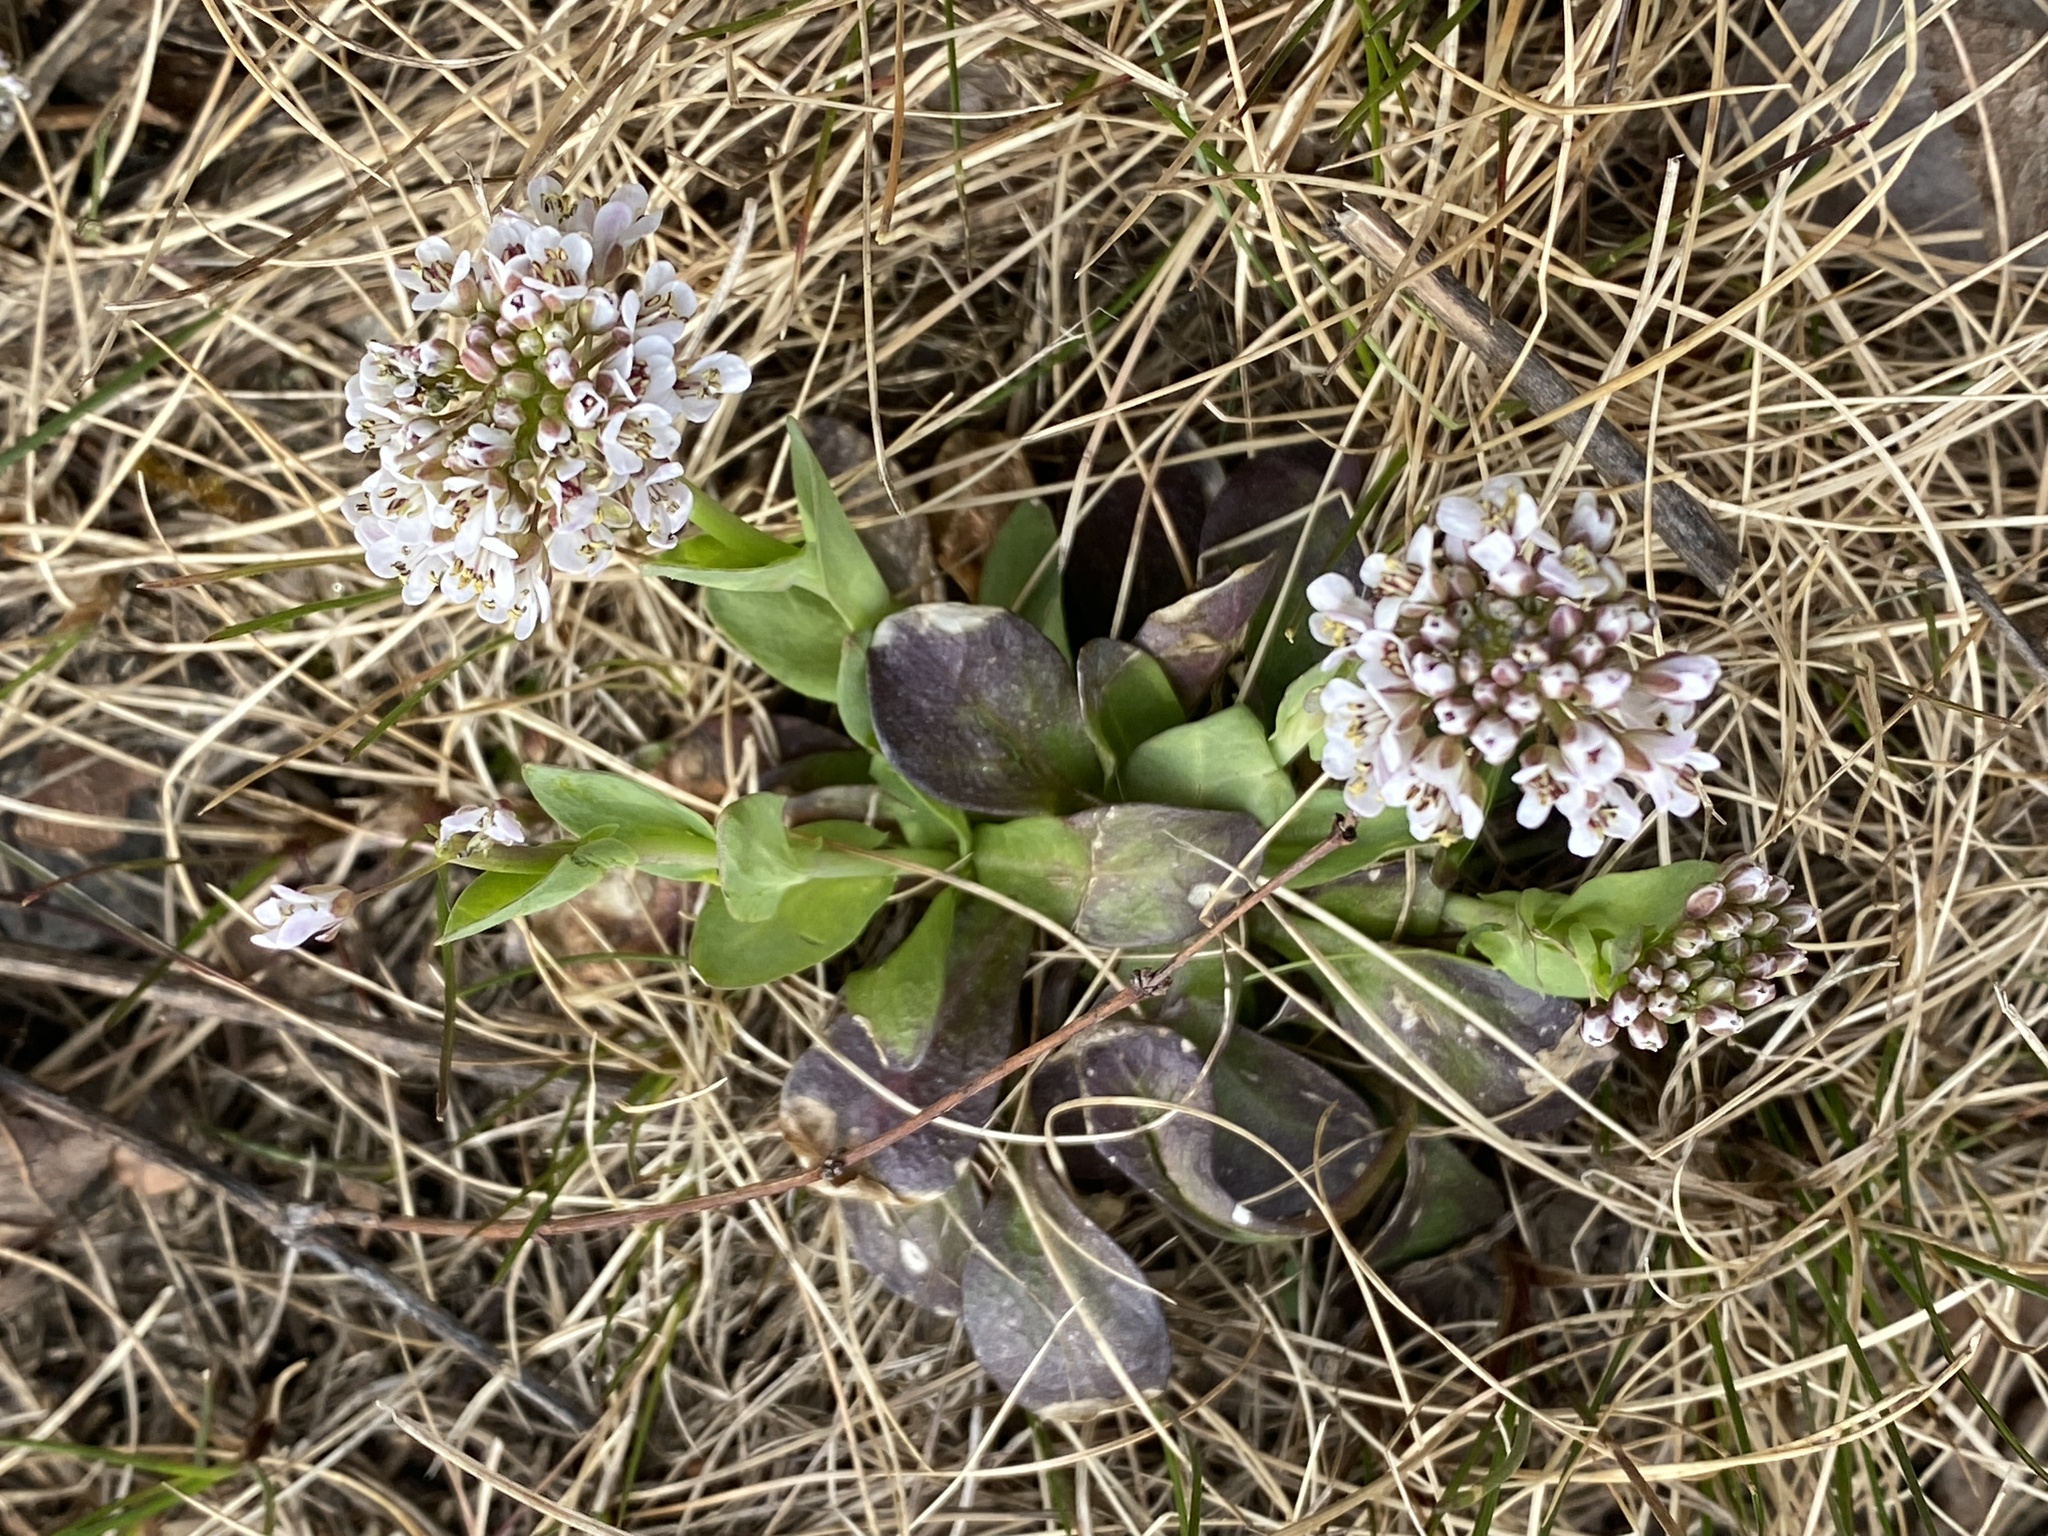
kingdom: Plantae
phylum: Tracheophyta
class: Magnoliopsida
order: Brassicales
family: Brassicaceae
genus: Noccaea
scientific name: Noccaea caerulescens
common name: Alpine pennycress
